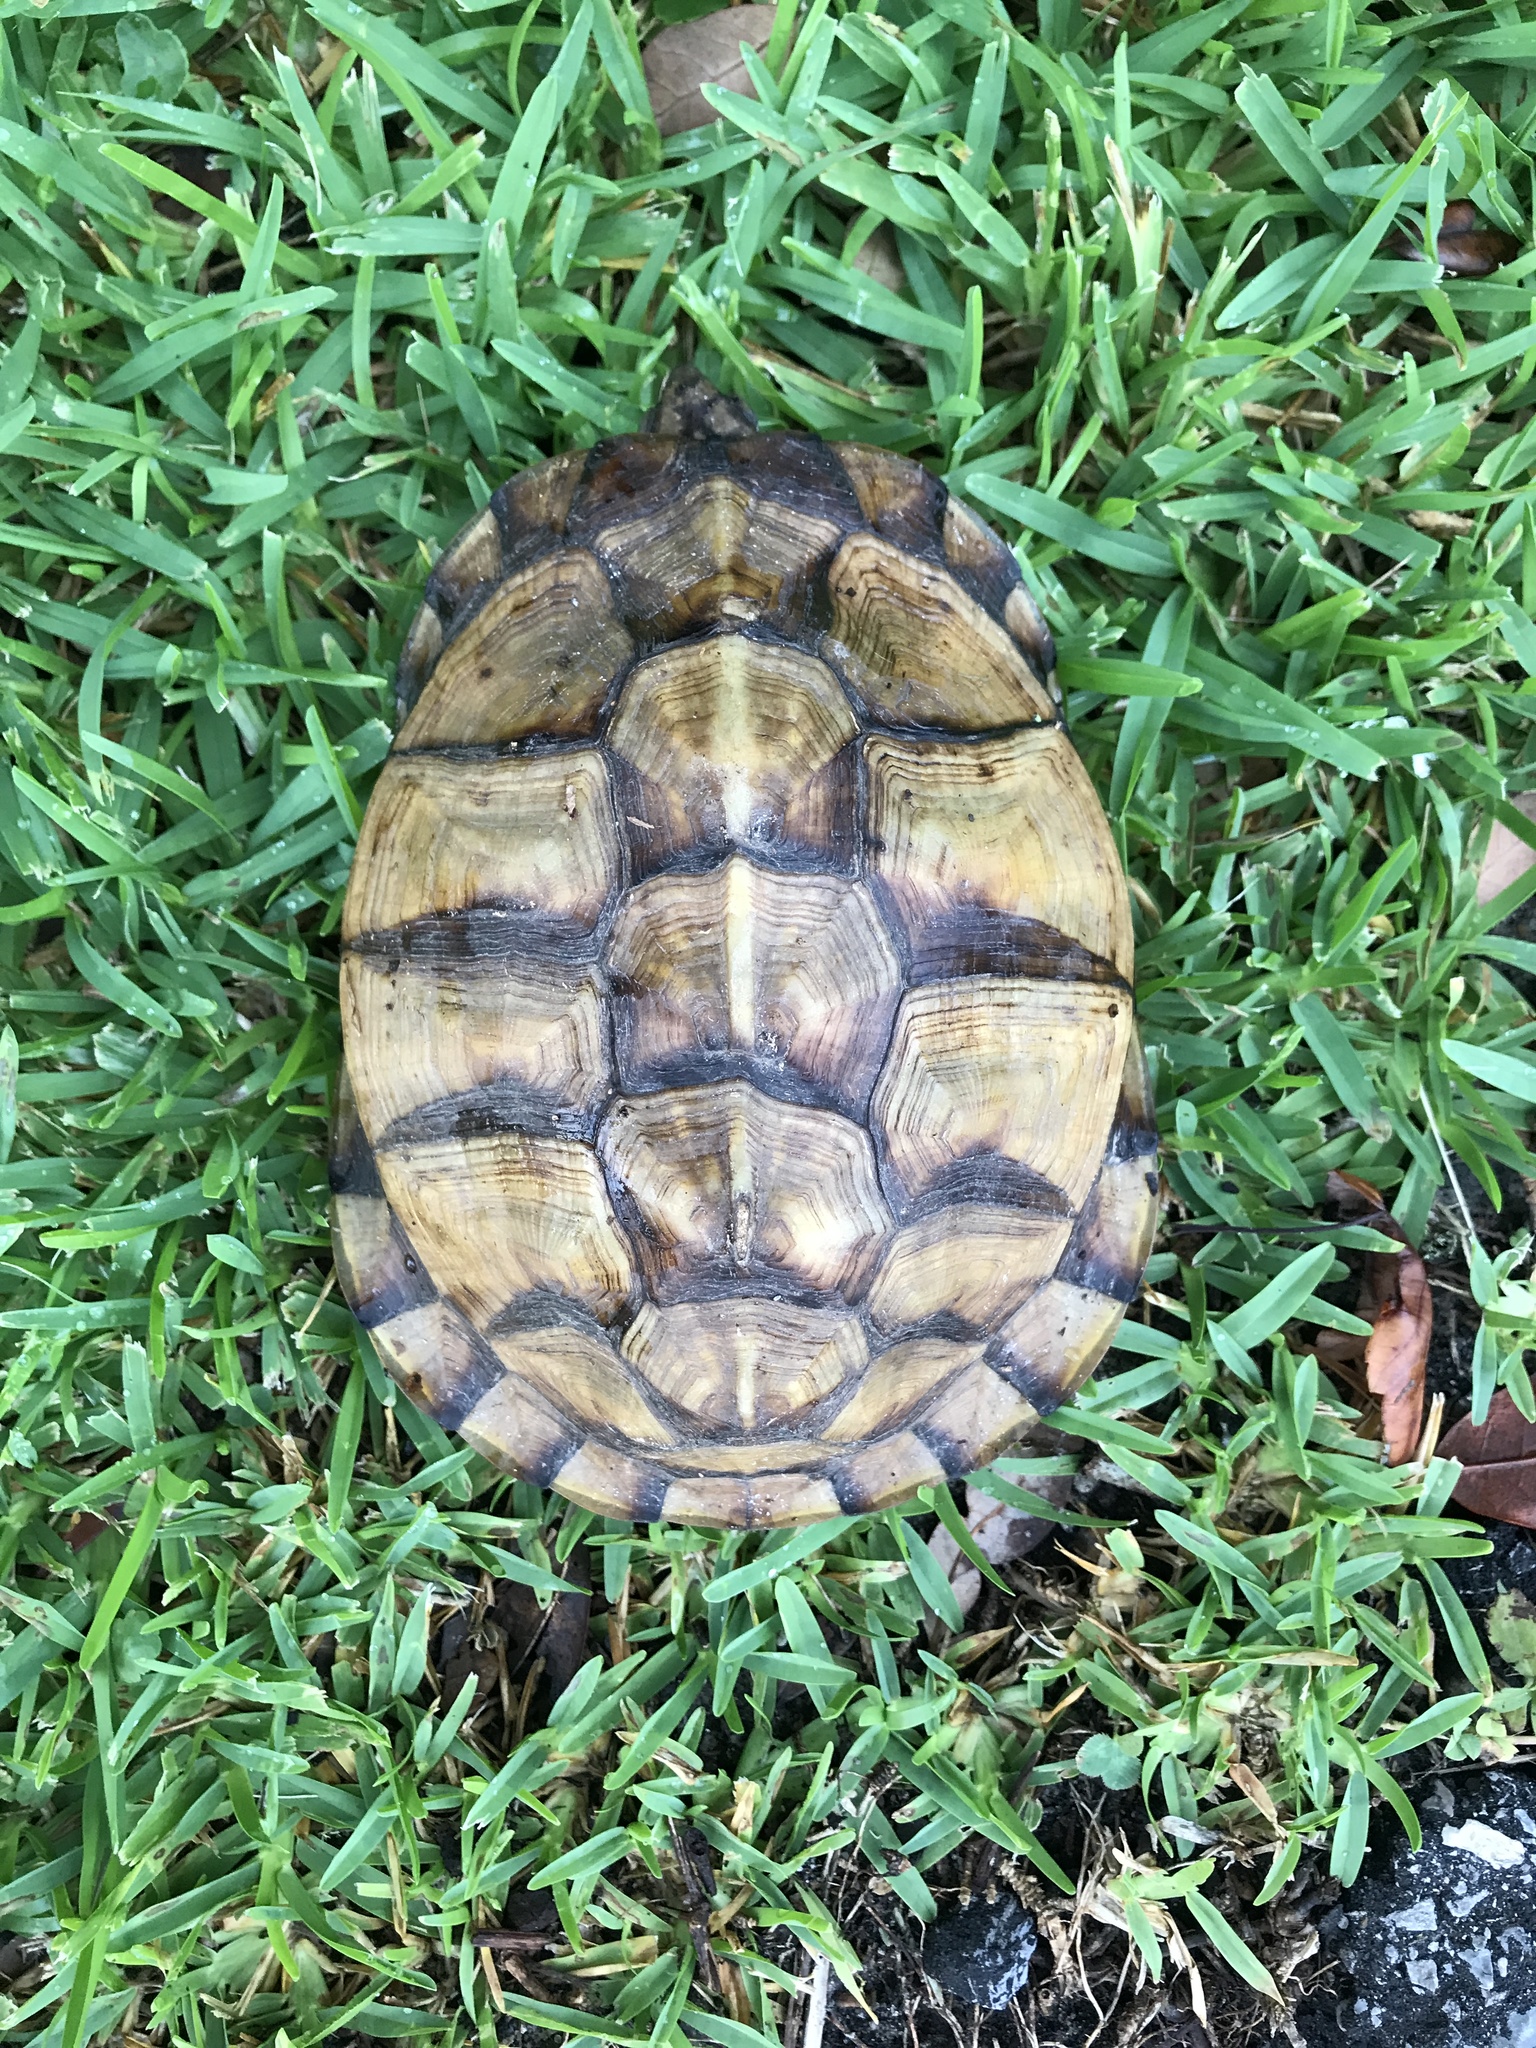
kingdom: Animalia
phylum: Chordata
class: Testudines
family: Emydidae
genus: Terrapene
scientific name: Terrapene carolina
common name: Common box turtle
